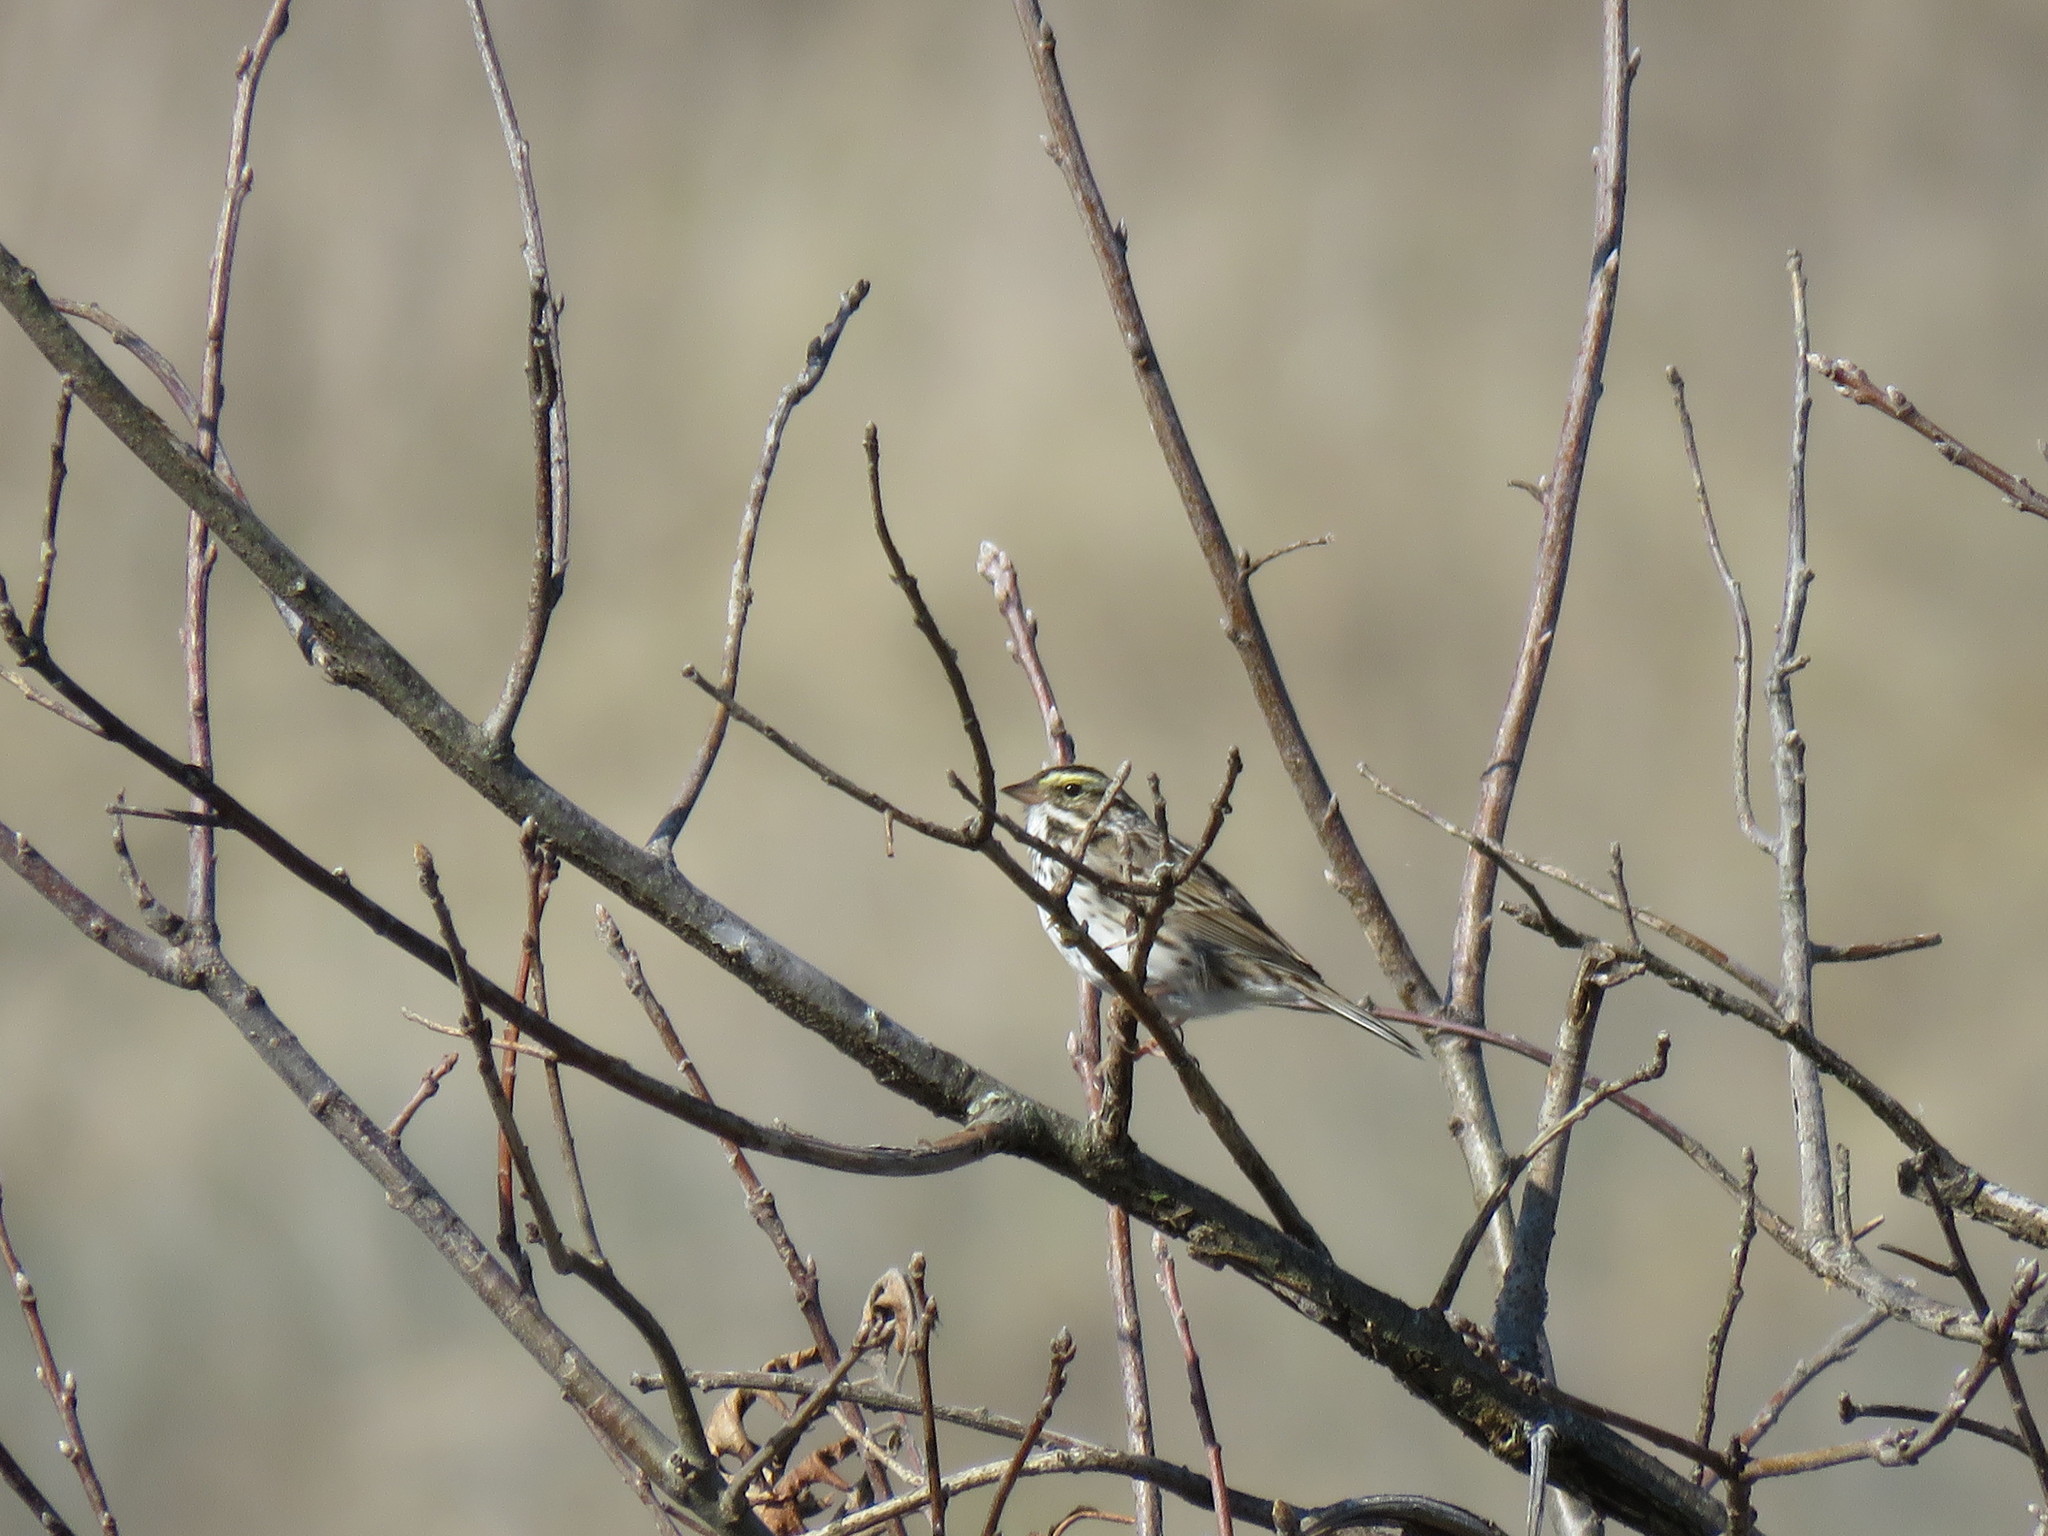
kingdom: Animalia
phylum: Chordata
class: Aves
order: Passeriformes
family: Passerellidae
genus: Passerculus
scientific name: Passerculus sandwichensis
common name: Savannah sparrow
